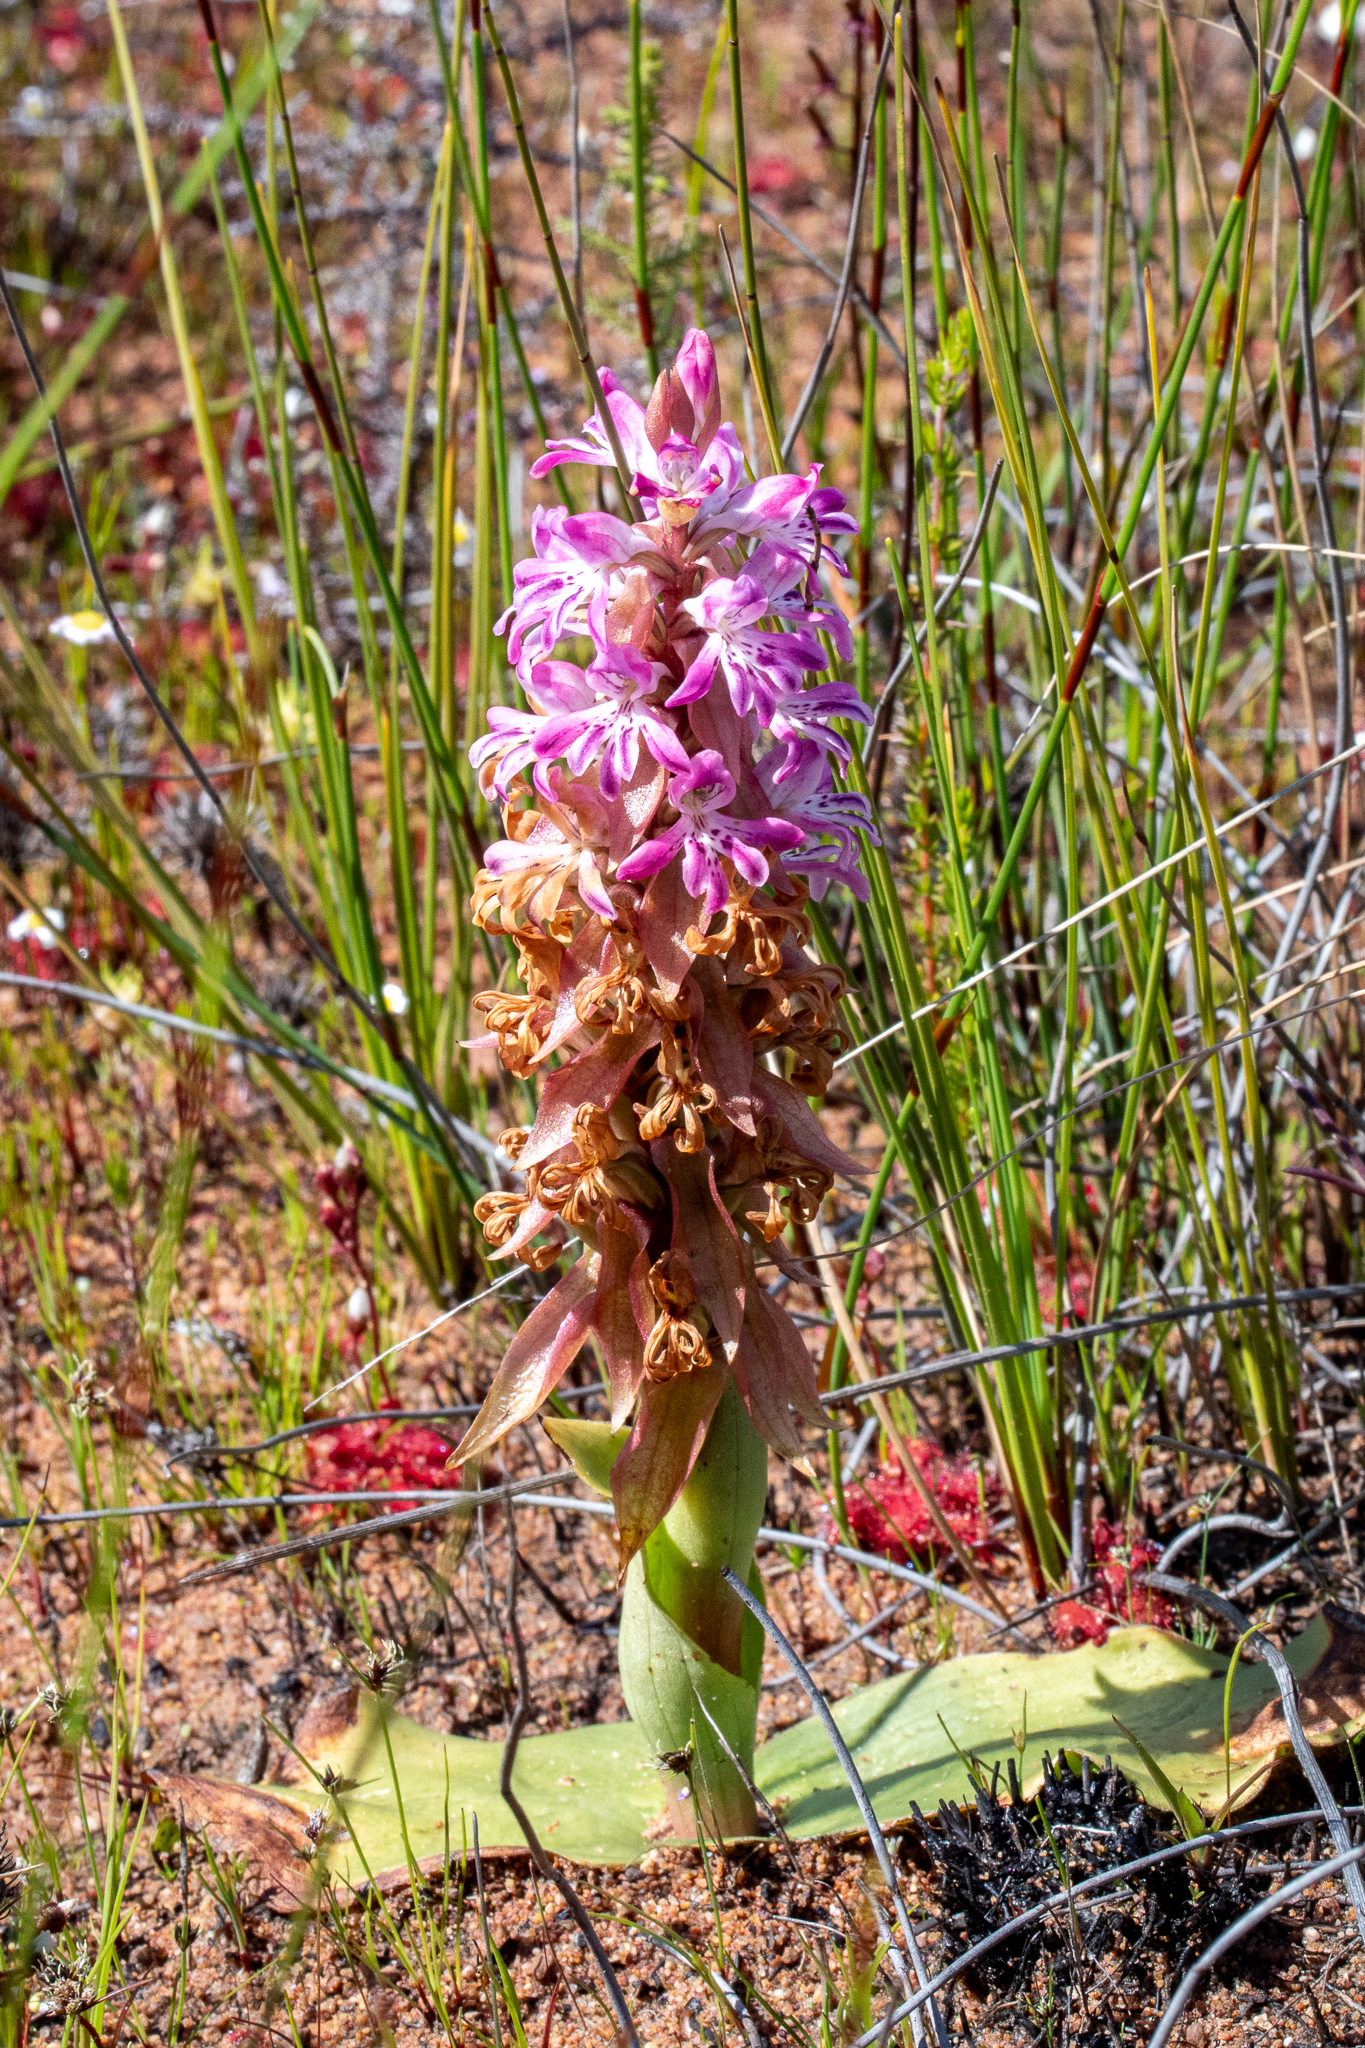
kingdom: Plantae
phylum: Tracheophyta
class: Liliopsida
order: Asparagales
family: Orchidaceae
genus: Satyrium
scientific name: Satyrium erectum
